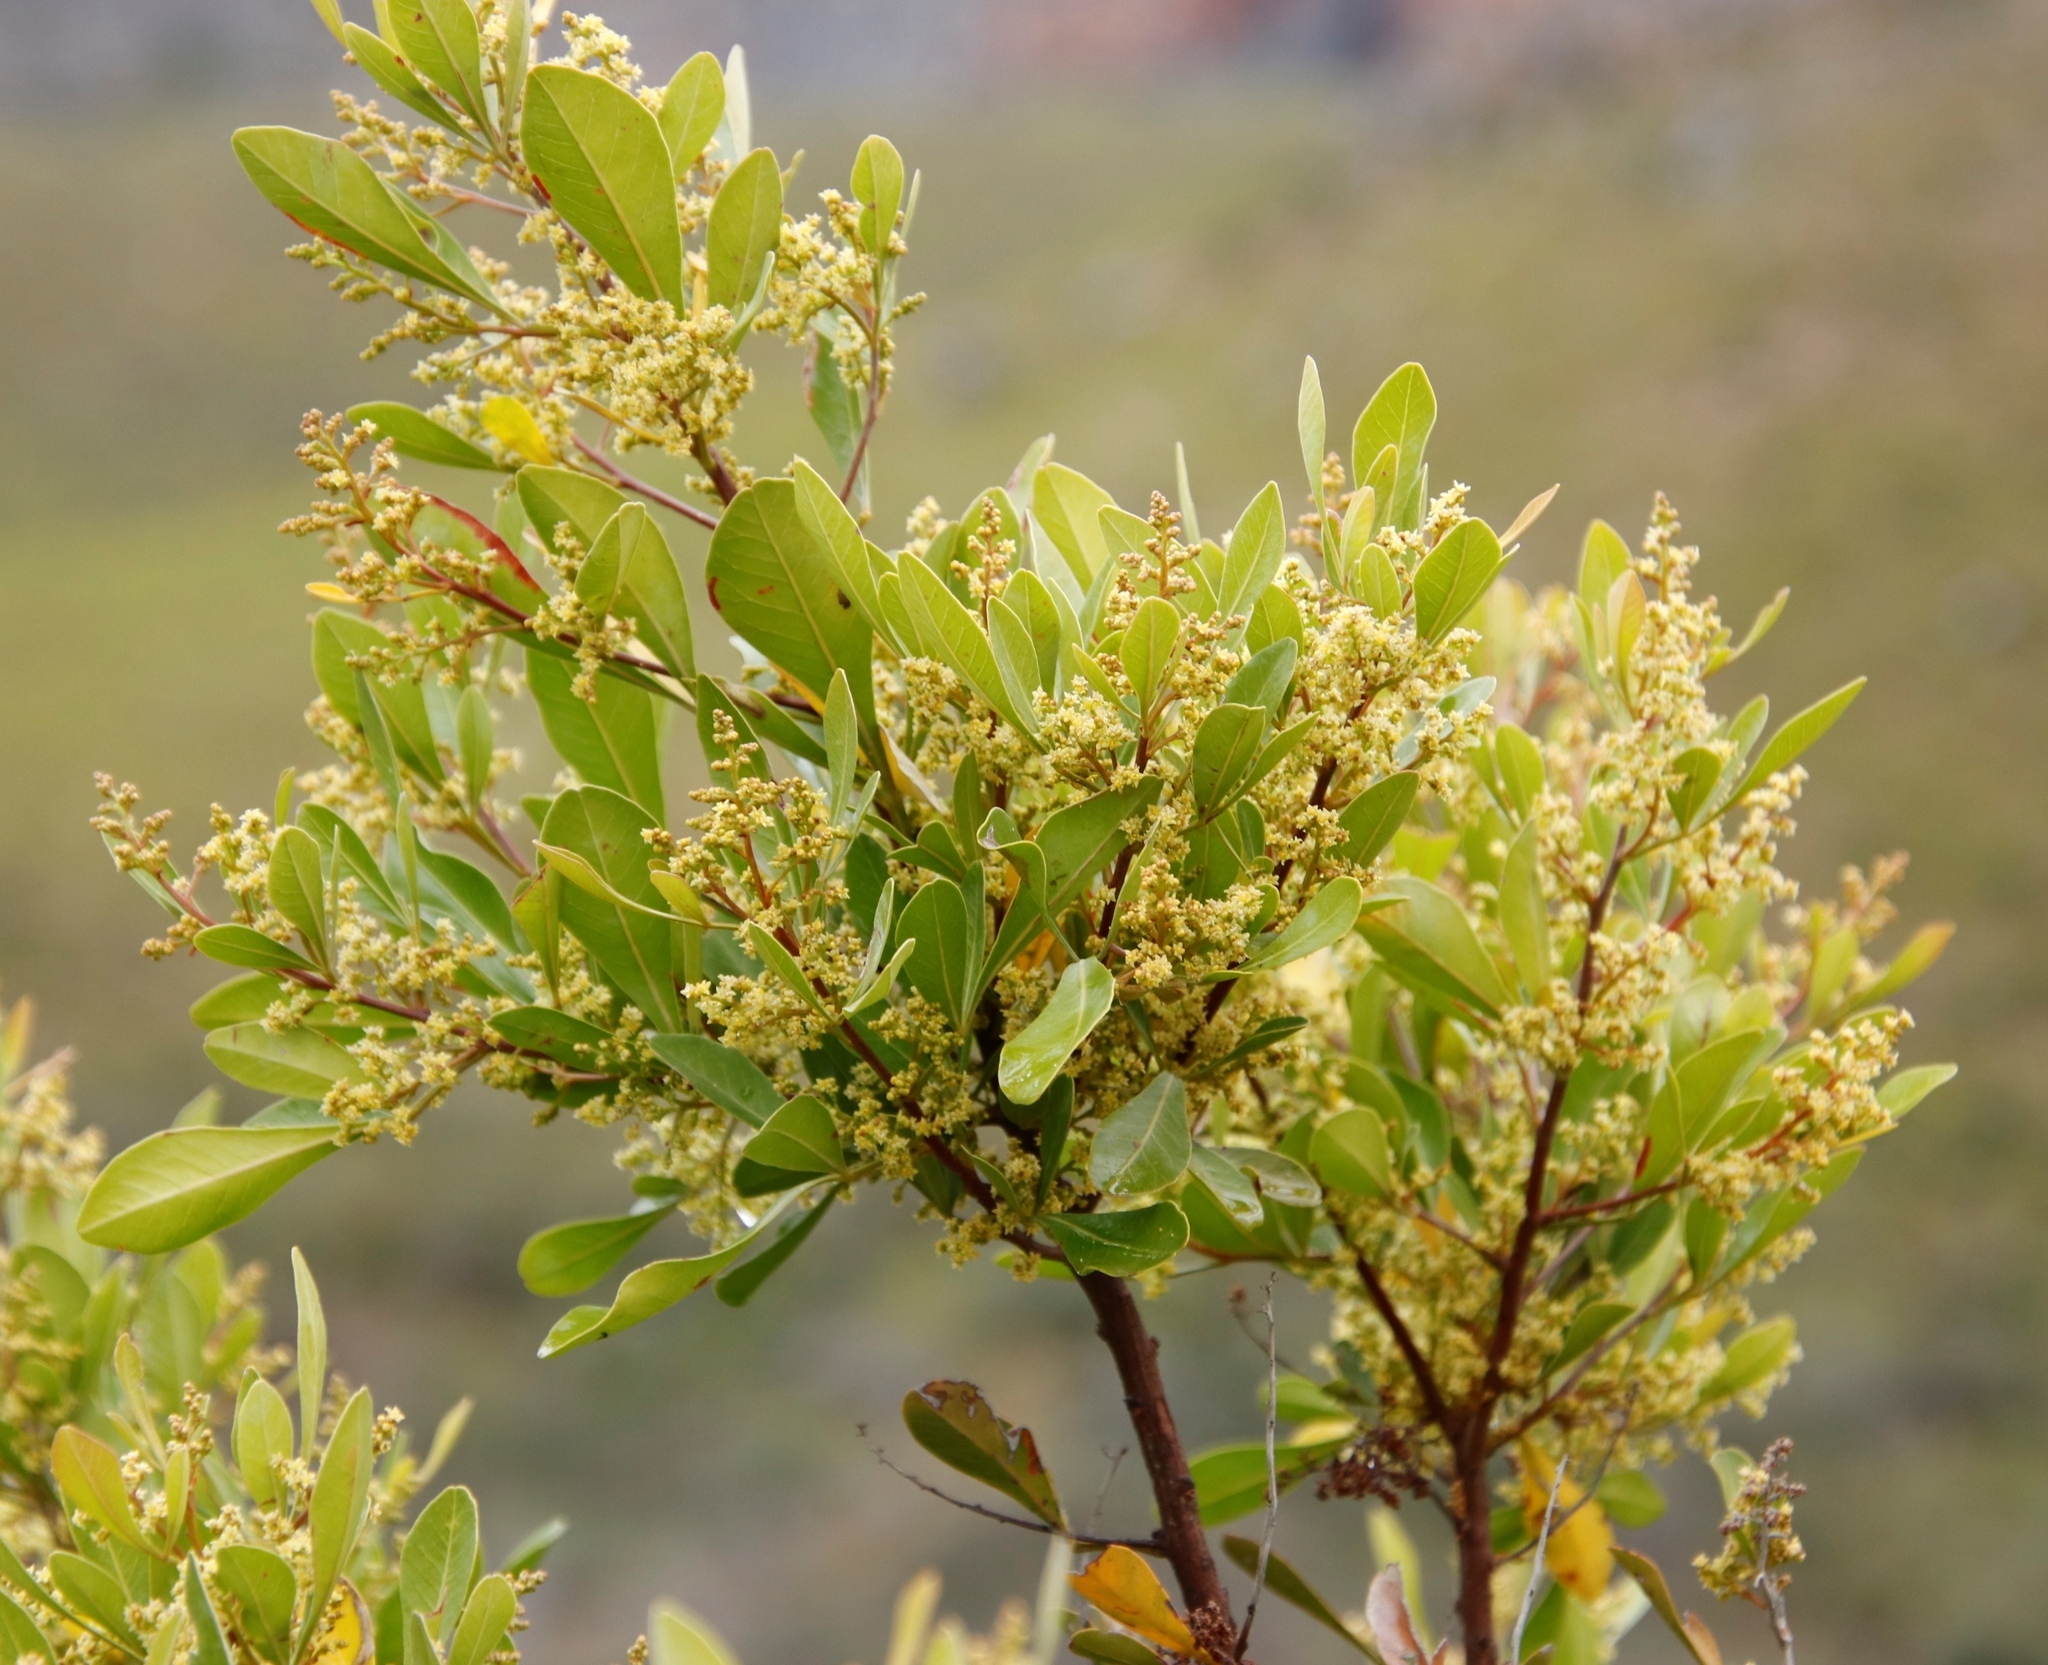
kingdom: Plantae
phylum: Tracheophyta
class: Magnoliopsida
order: Sapindales
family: Anacardiaceae
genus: Searsia
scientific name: Searsia lucida
